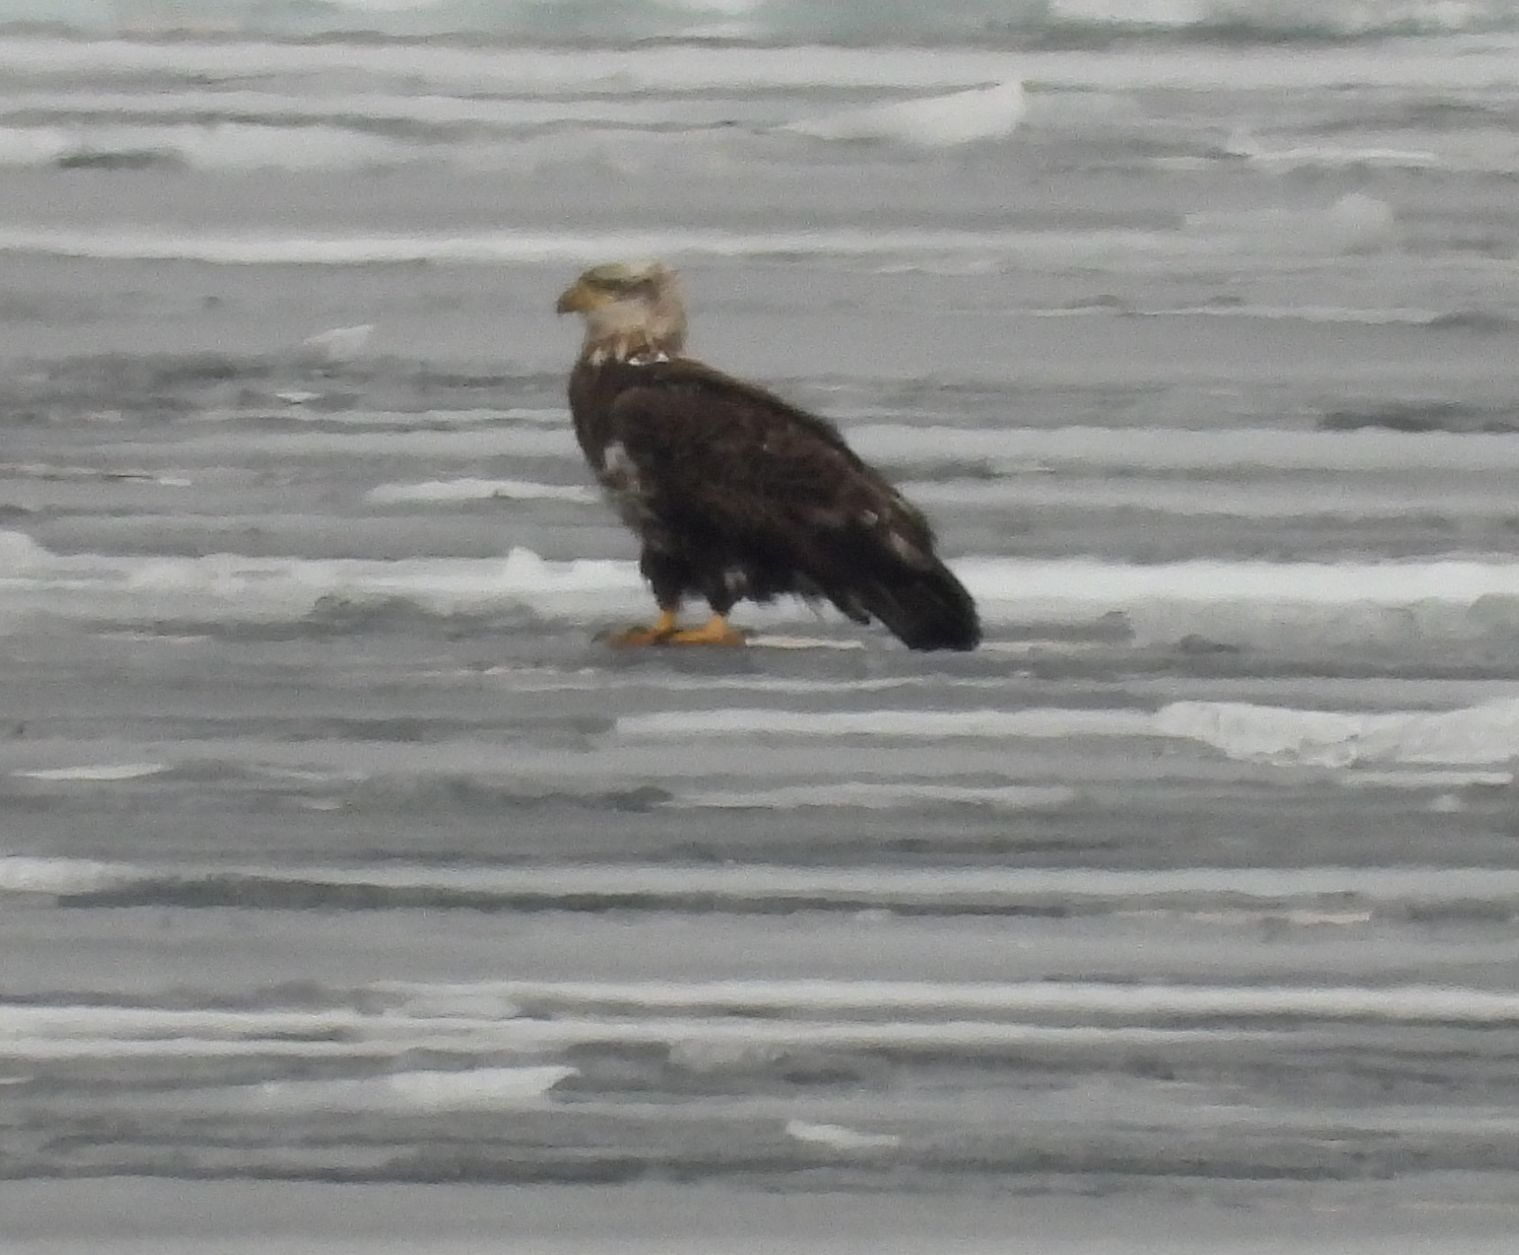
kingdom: Animalia
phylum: Chordata
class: Aves
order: Accipitriformes
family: Accipitridae
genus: Haliaeetus
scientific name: Haliaeetus leucocephalus
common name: Bald eagle
